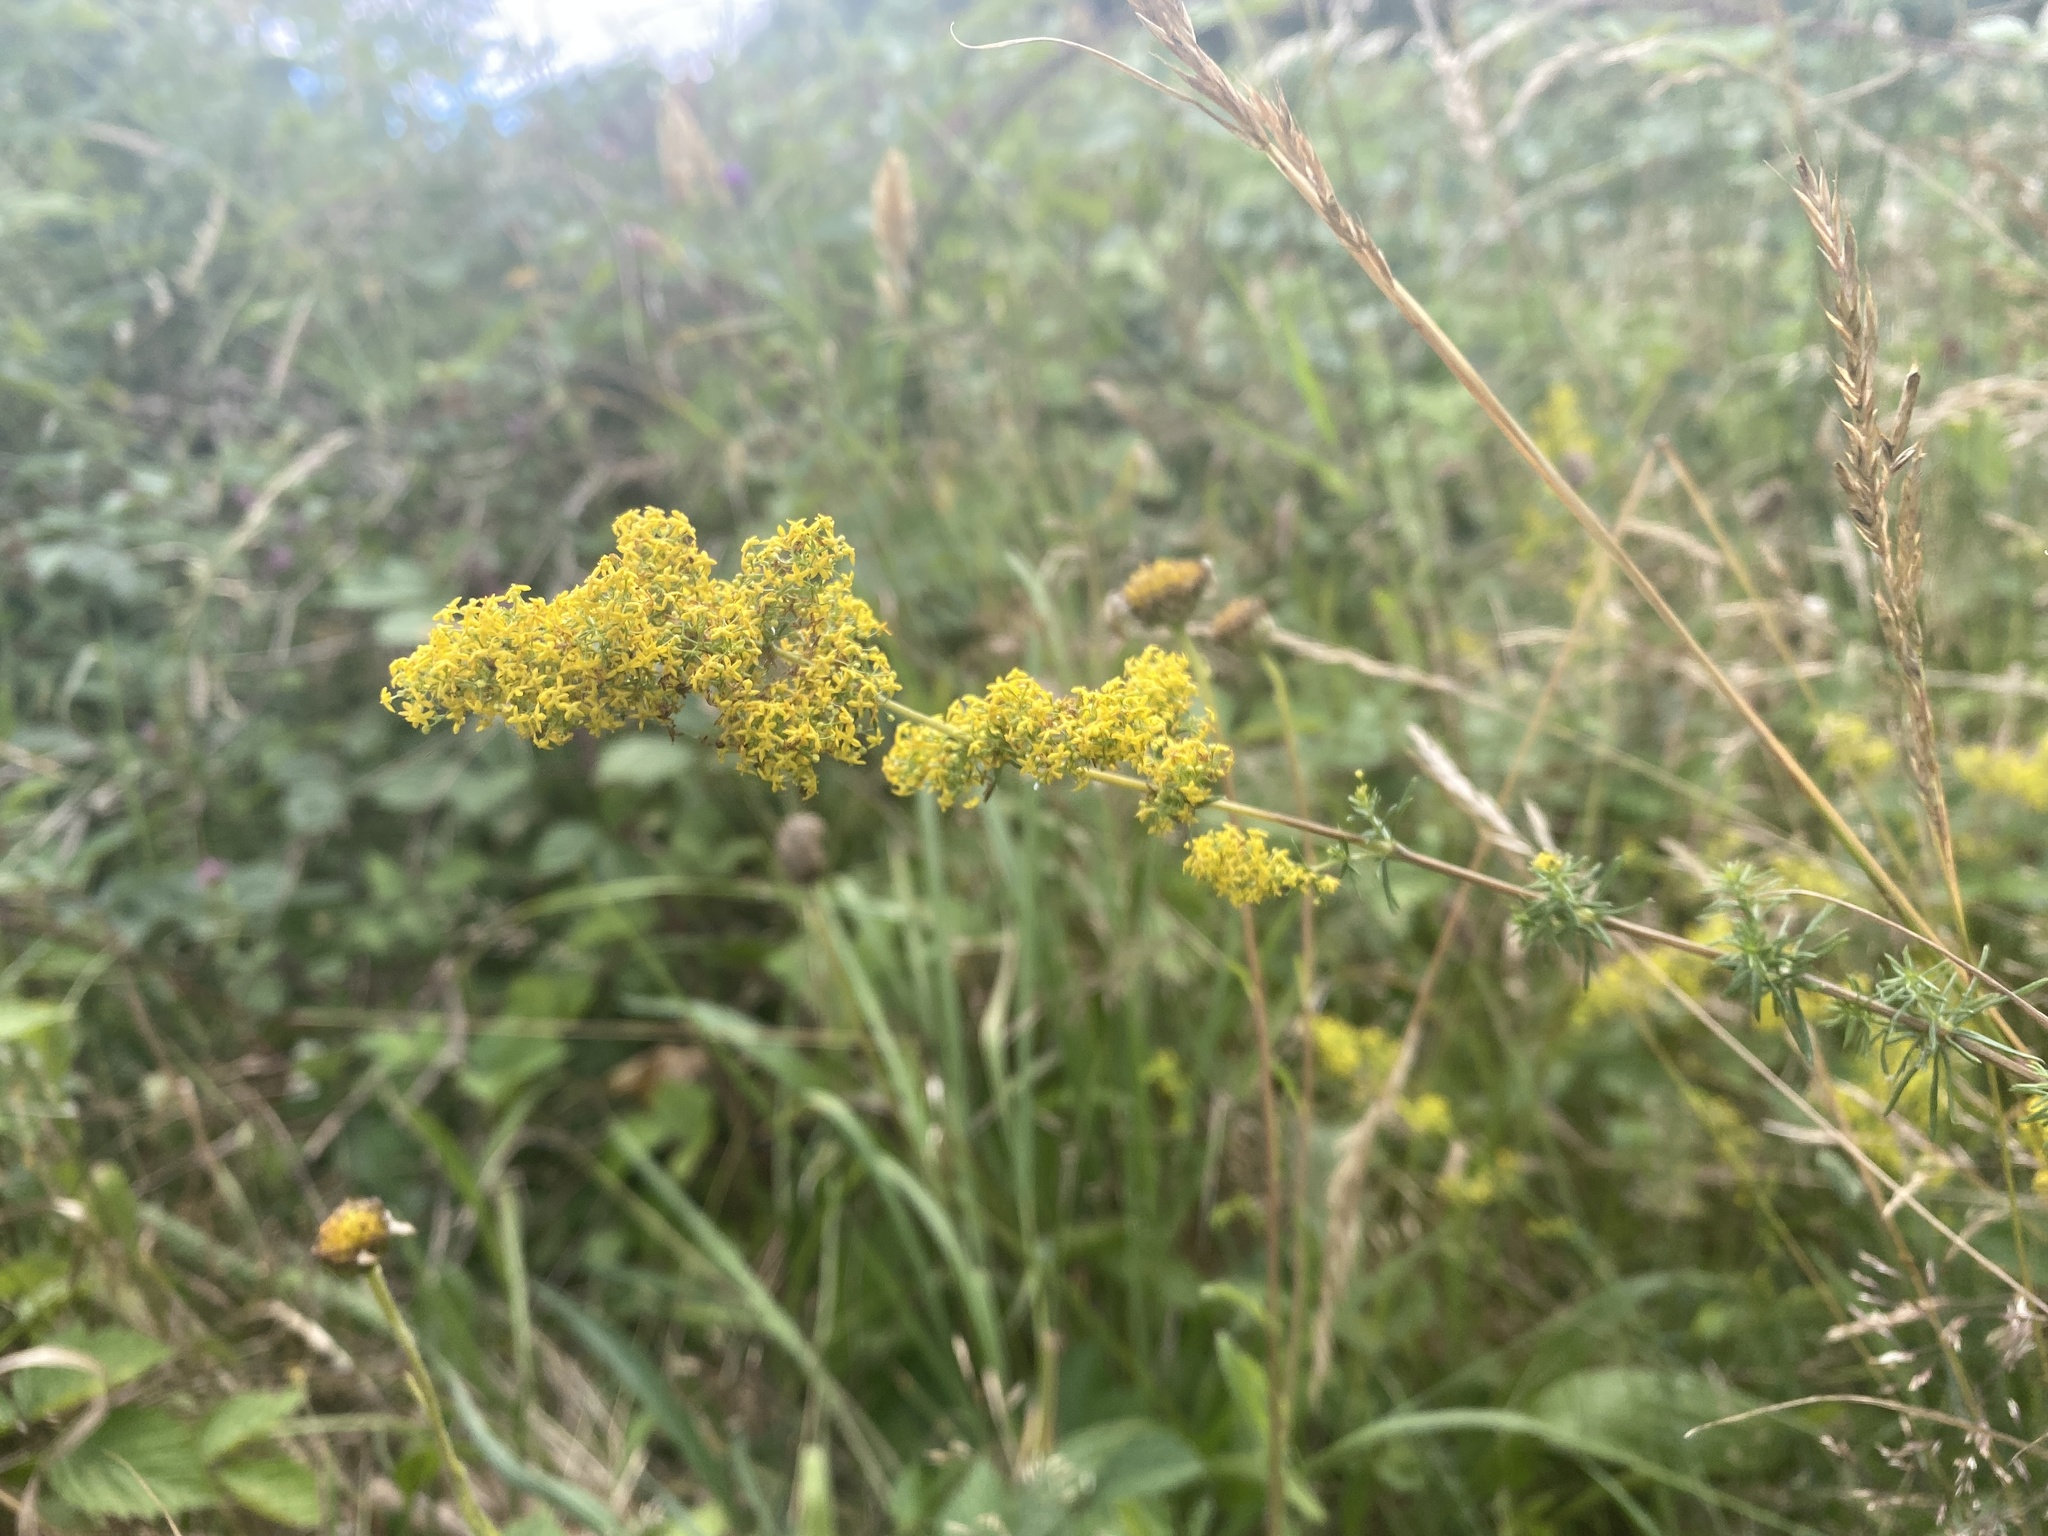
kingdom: Plantae
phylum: Tracheophyta
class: Magnoliopsida
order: Gentianales
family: Rubiaceae
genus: Galium
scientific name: Galium verum
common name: Lady's bedstraw
